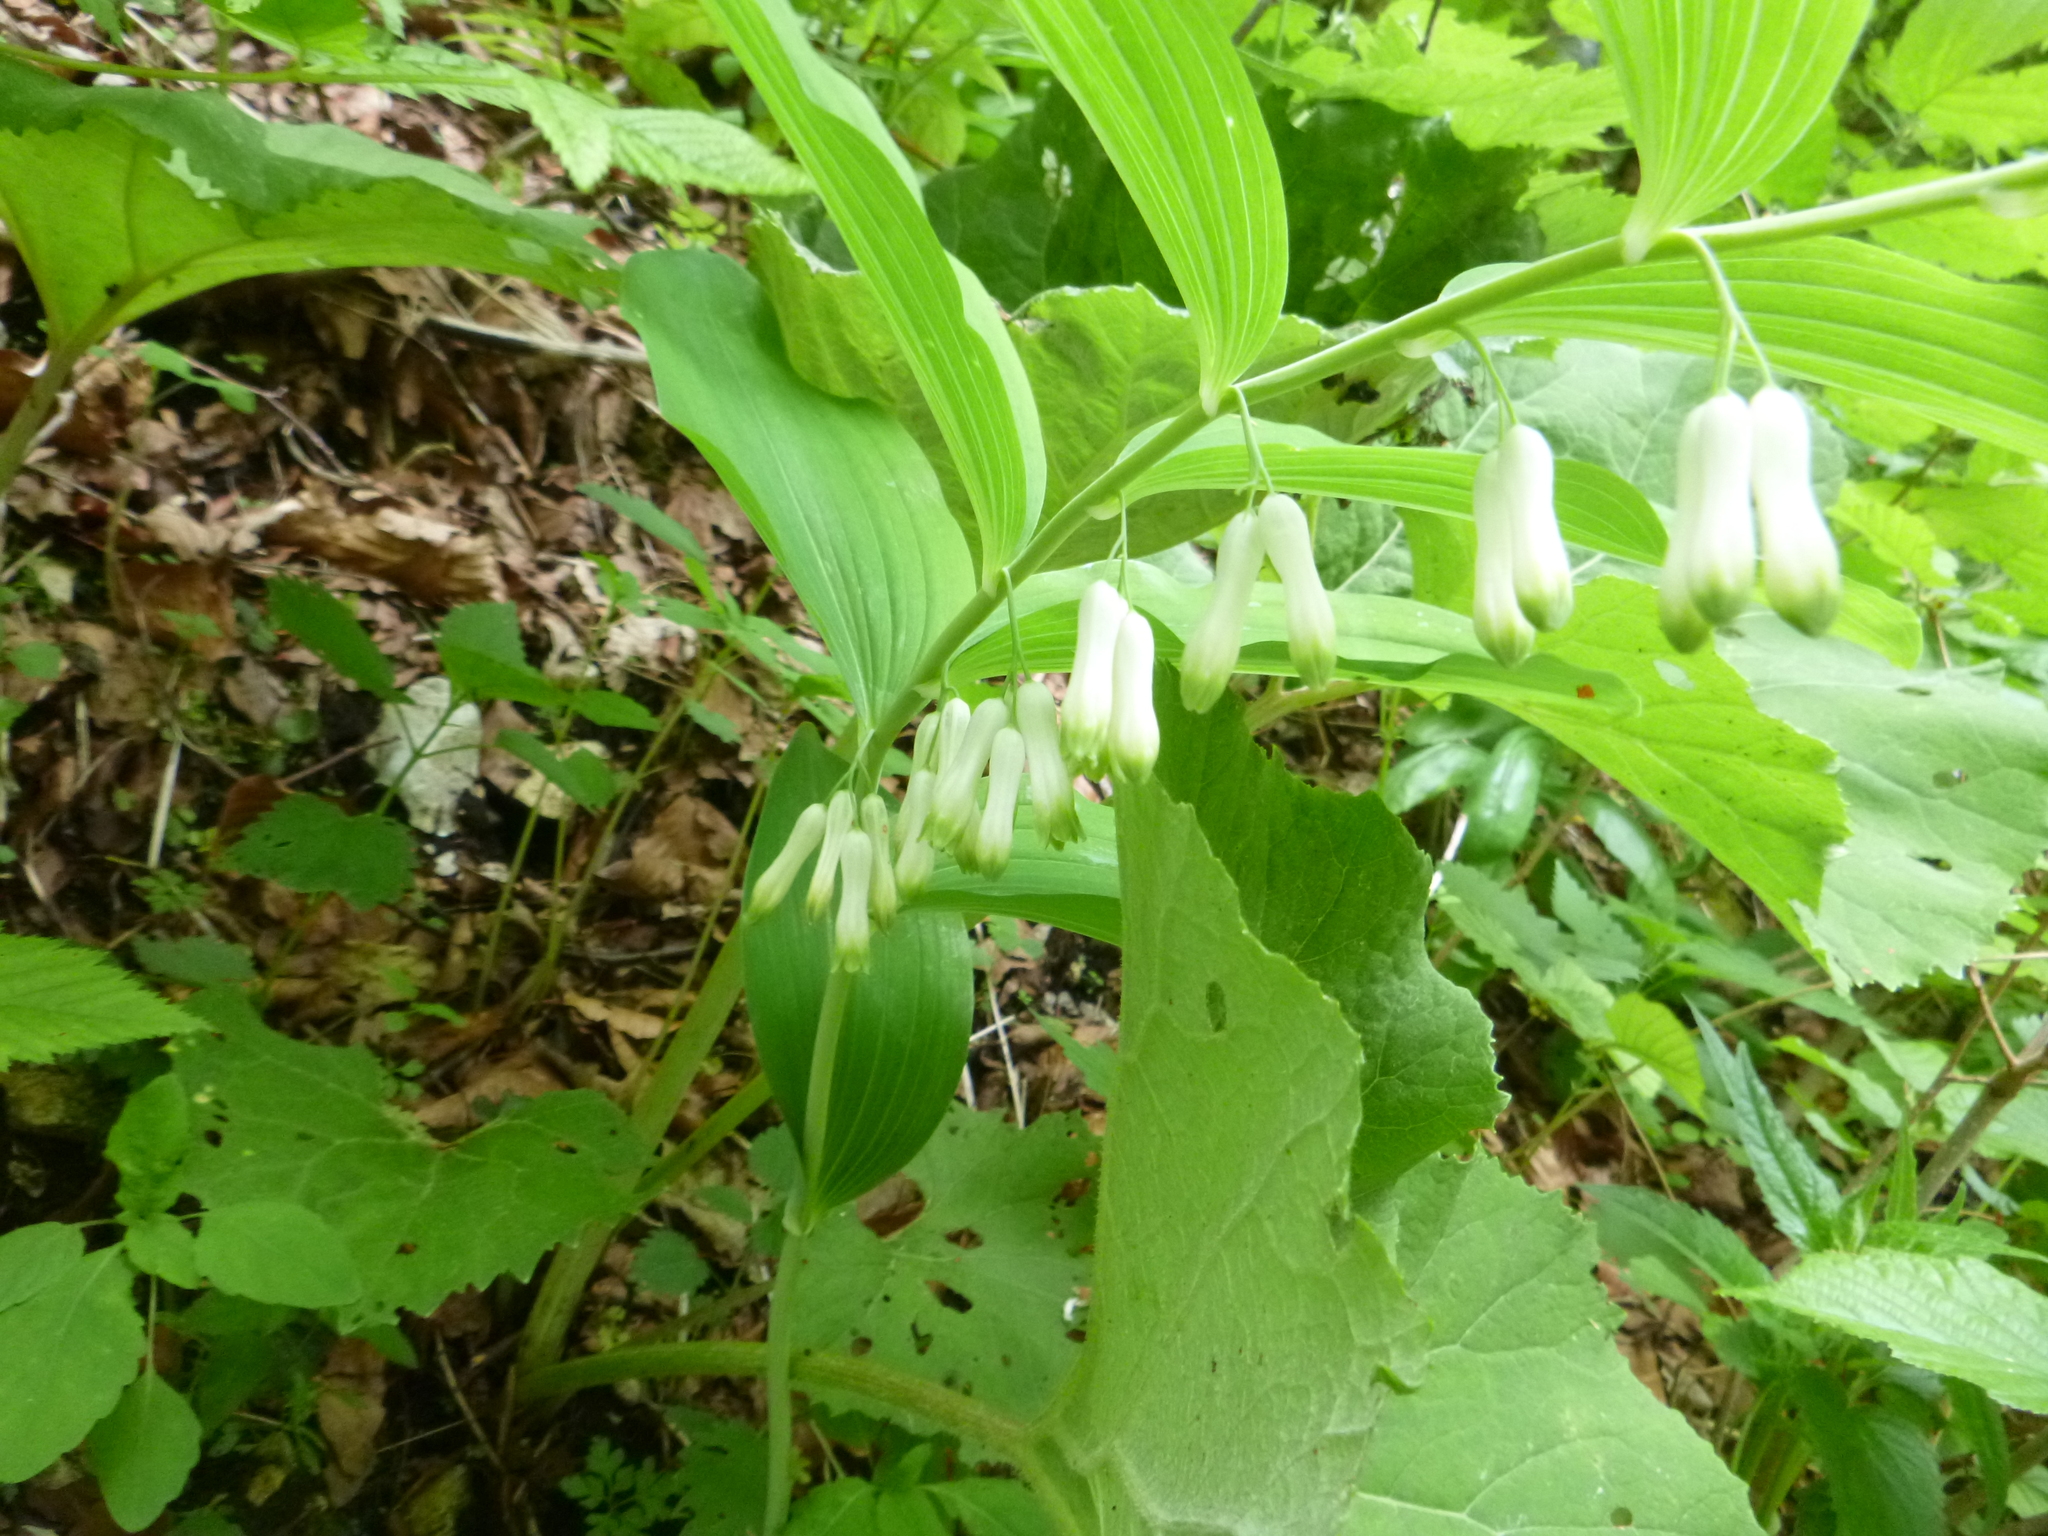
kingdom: Plantae
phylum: Tracheophyta
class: Liliopsida
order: Asparagales
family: Asparagaceae
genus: Polygonatum
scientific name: Polygonatum multiflorum
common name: Solomon's-seal
